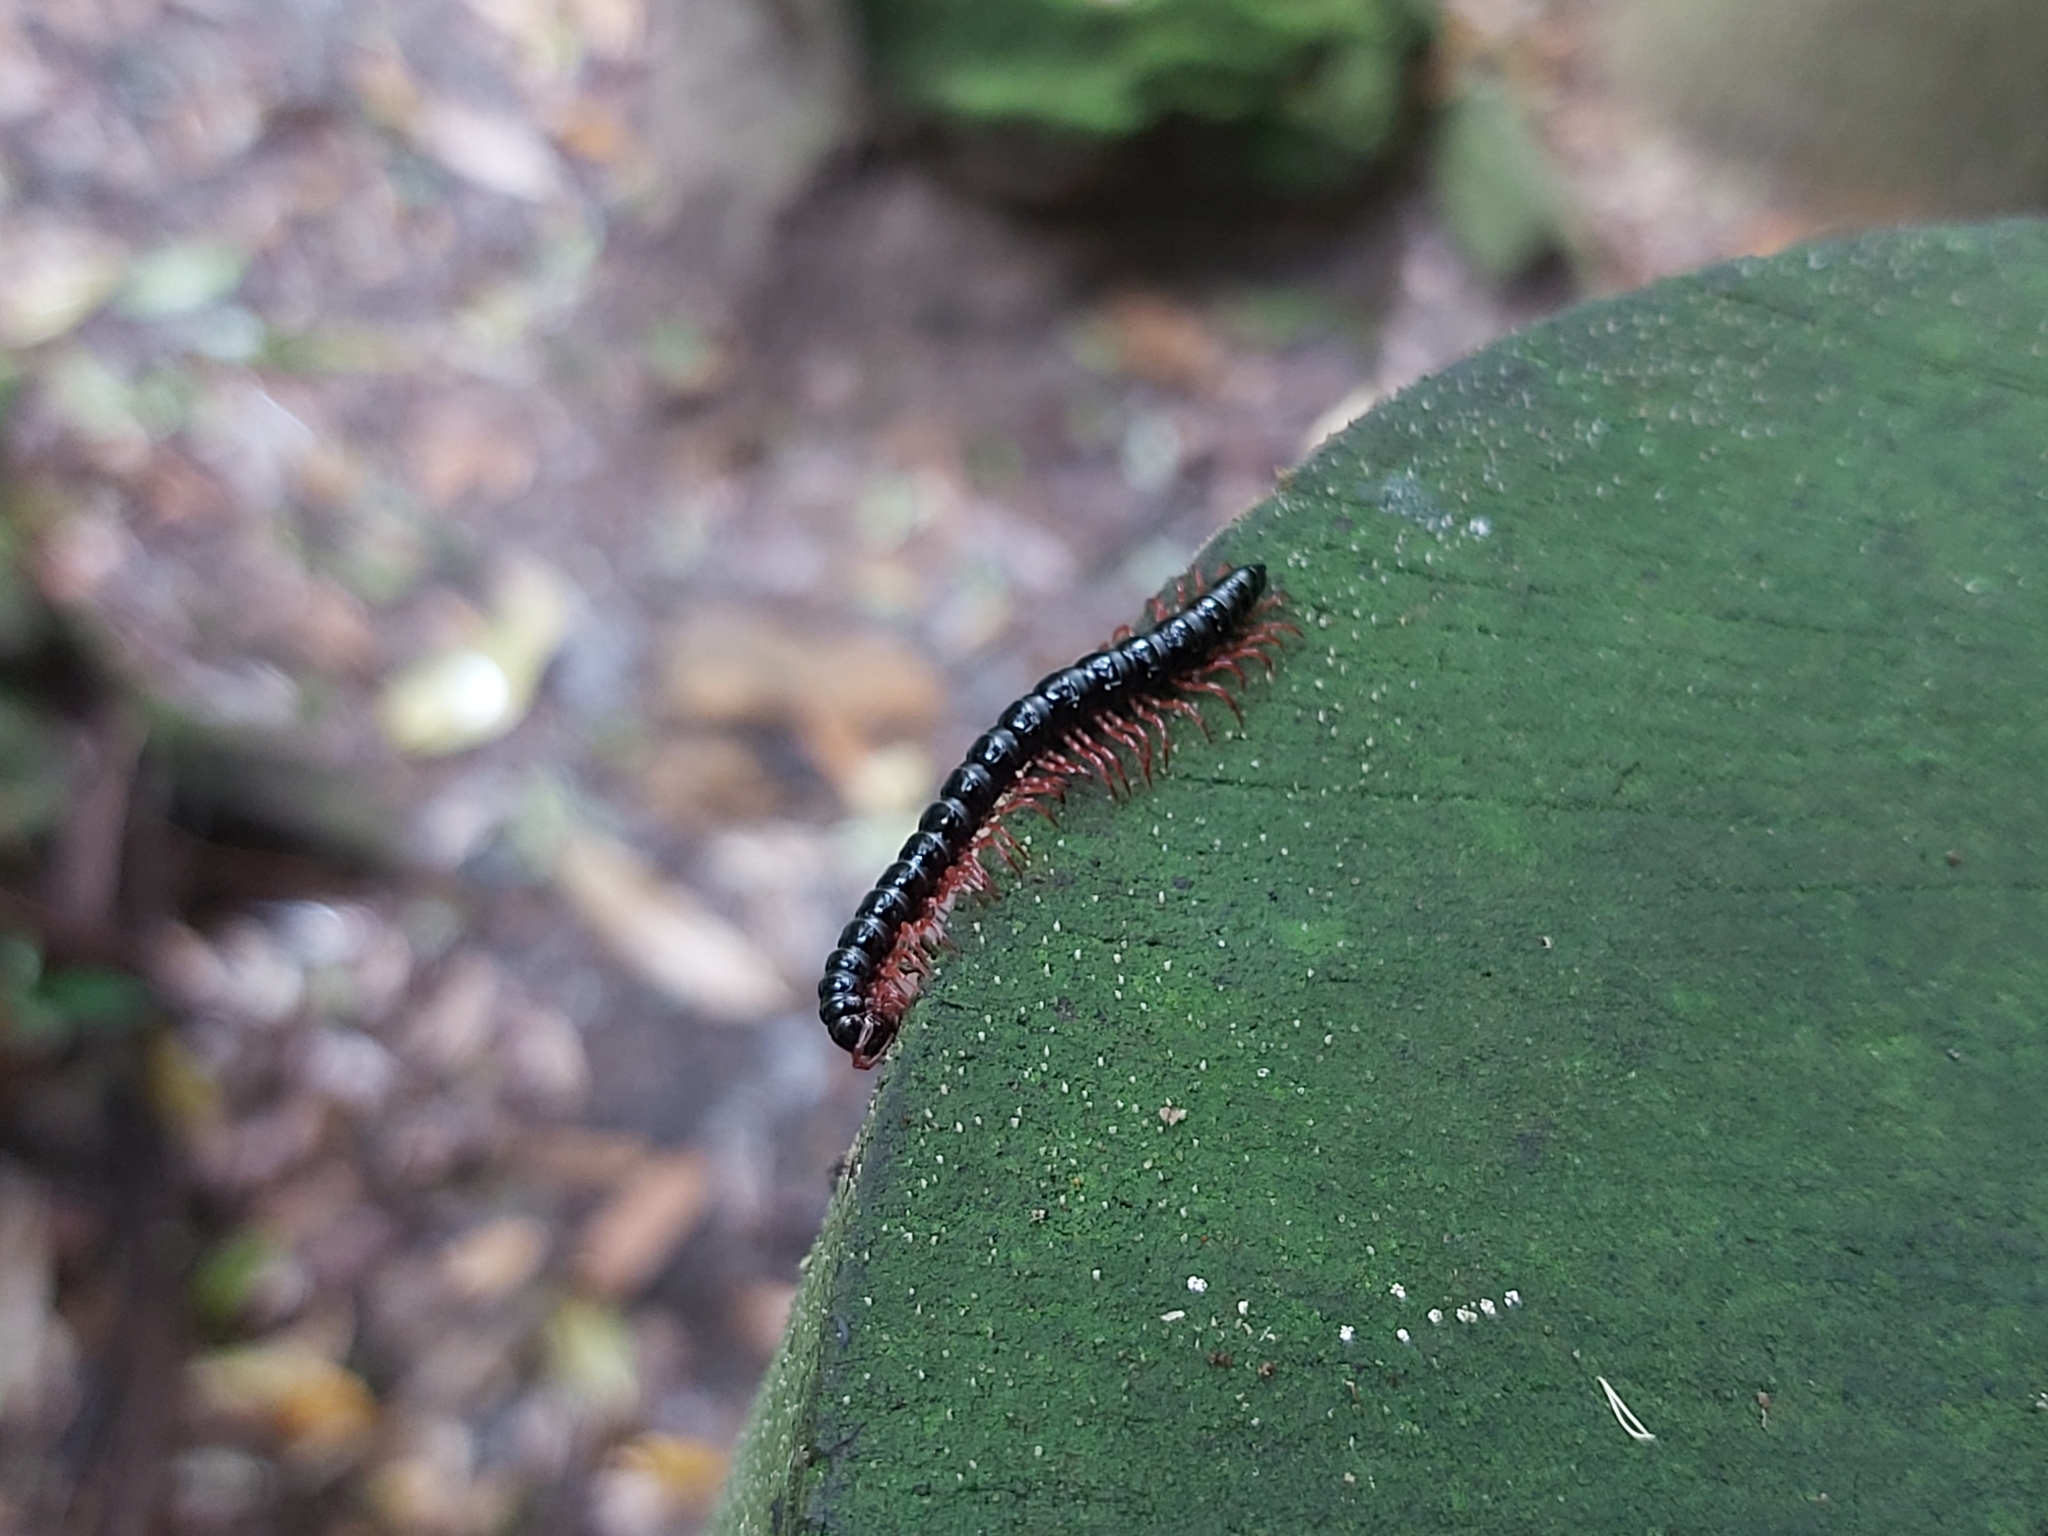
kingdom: Animalia
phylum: Arthropoda
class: Diplopoda
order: Polydesmida
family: Paradoxosomatidae
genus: Heterocladosoma
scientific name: Heterocladosoma
